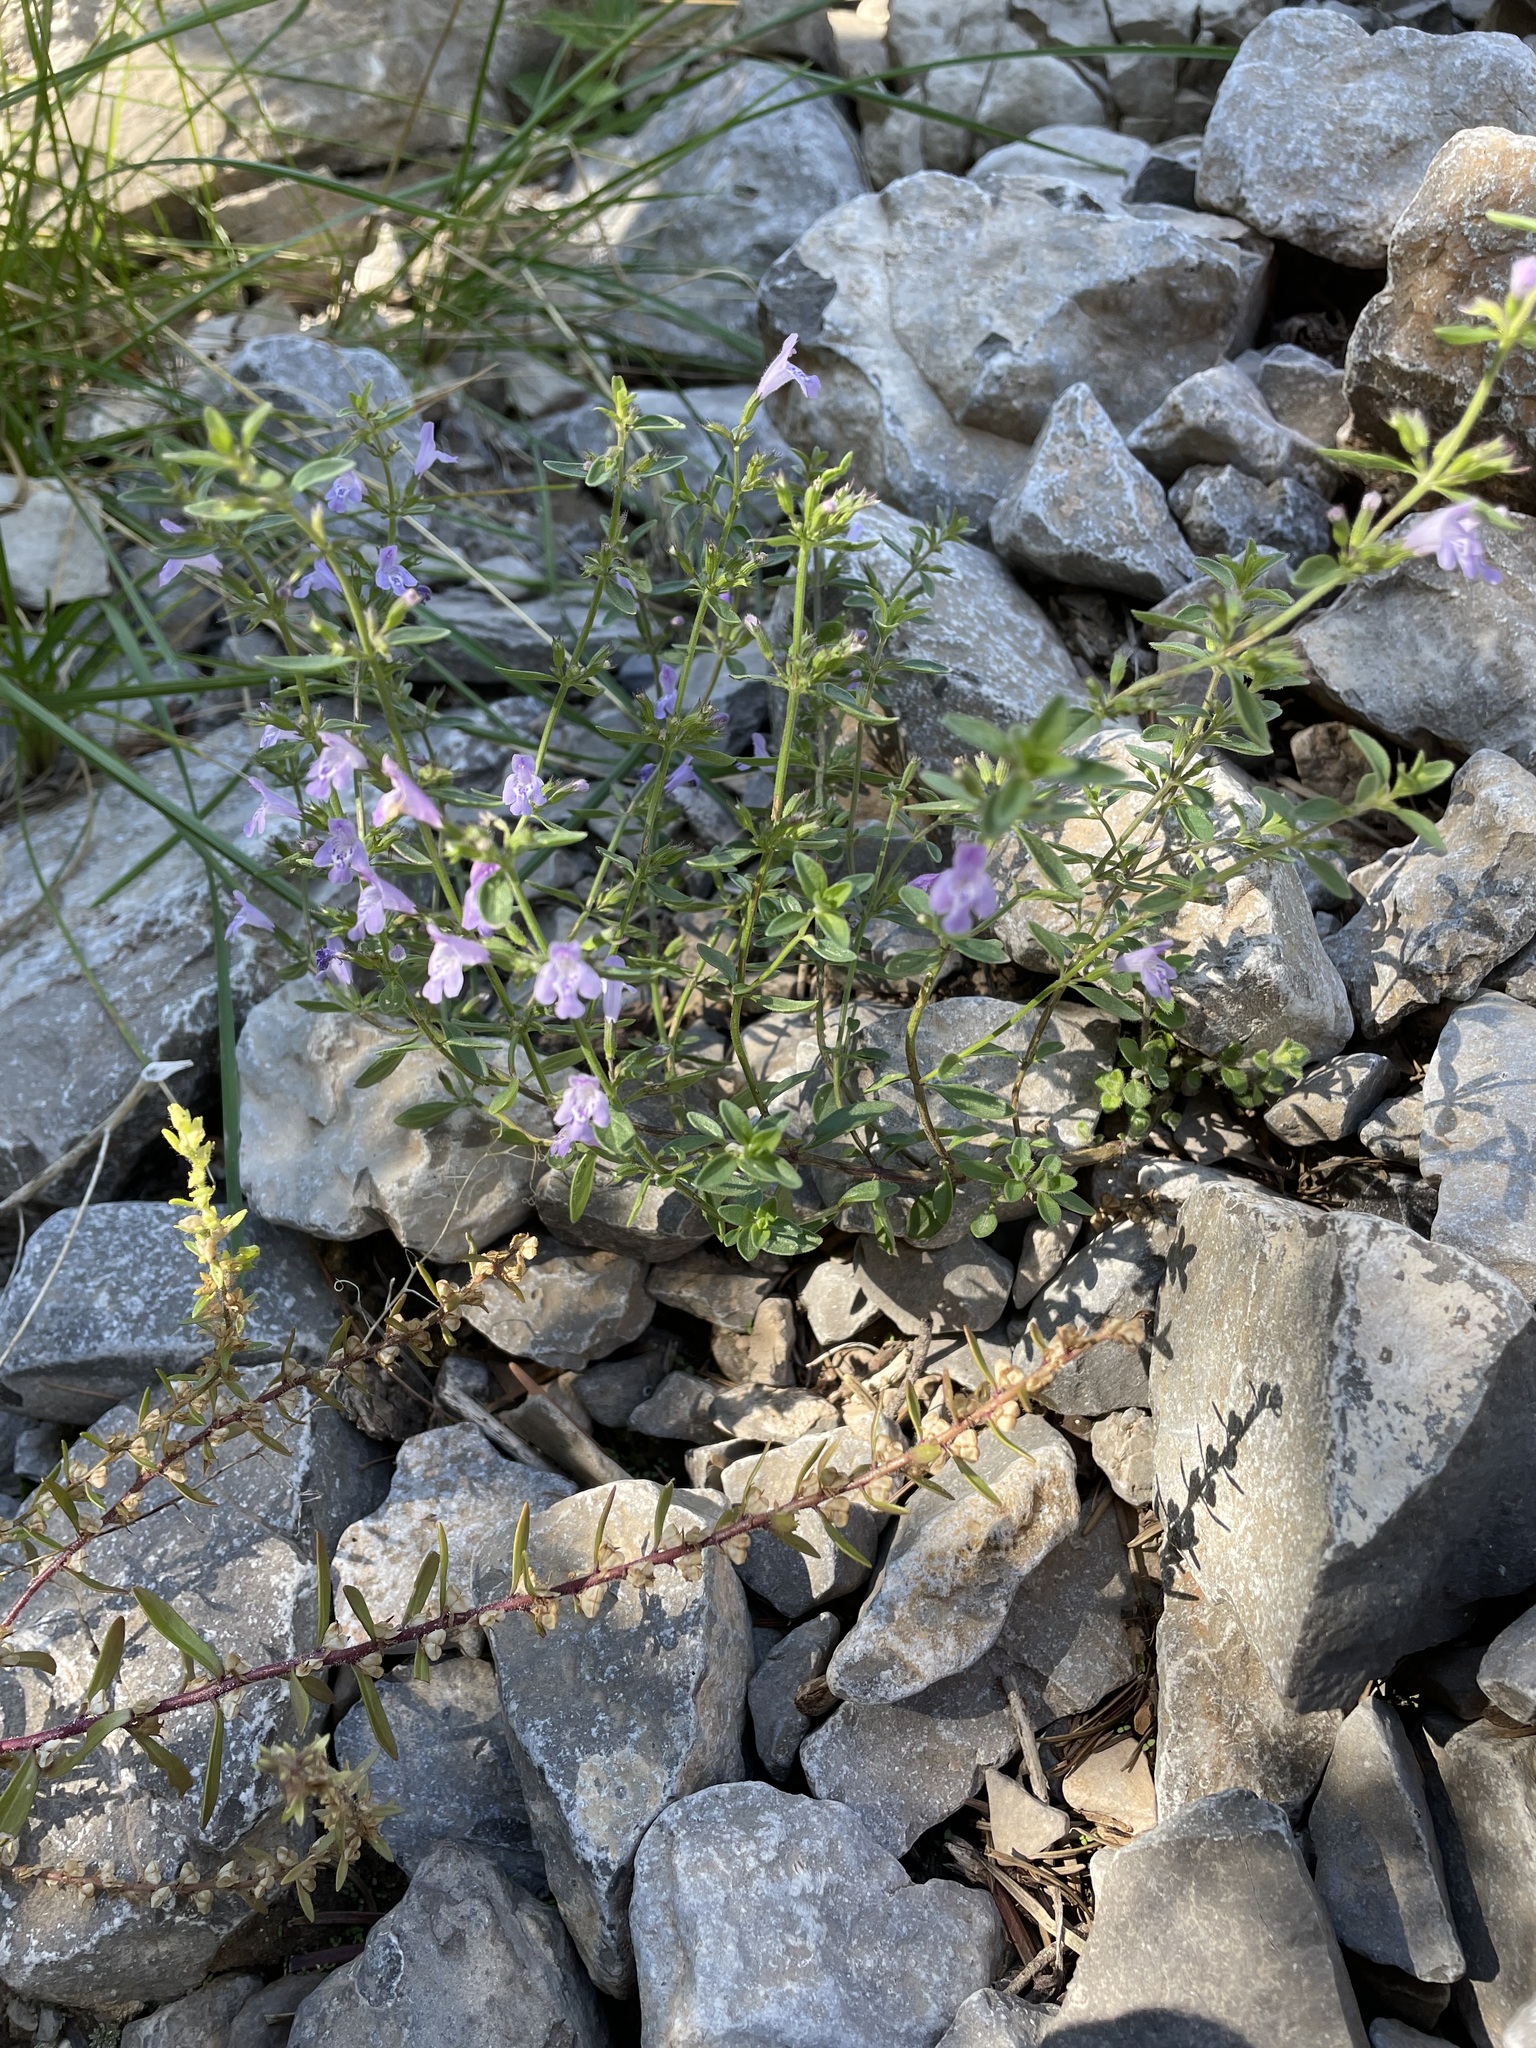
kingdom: Plantae
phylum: Tracheophyta
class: Magnoliopsida
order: Lamiales
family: Lamiaceae
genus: Hedeoma
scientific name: Hedeoma pulcherrima
